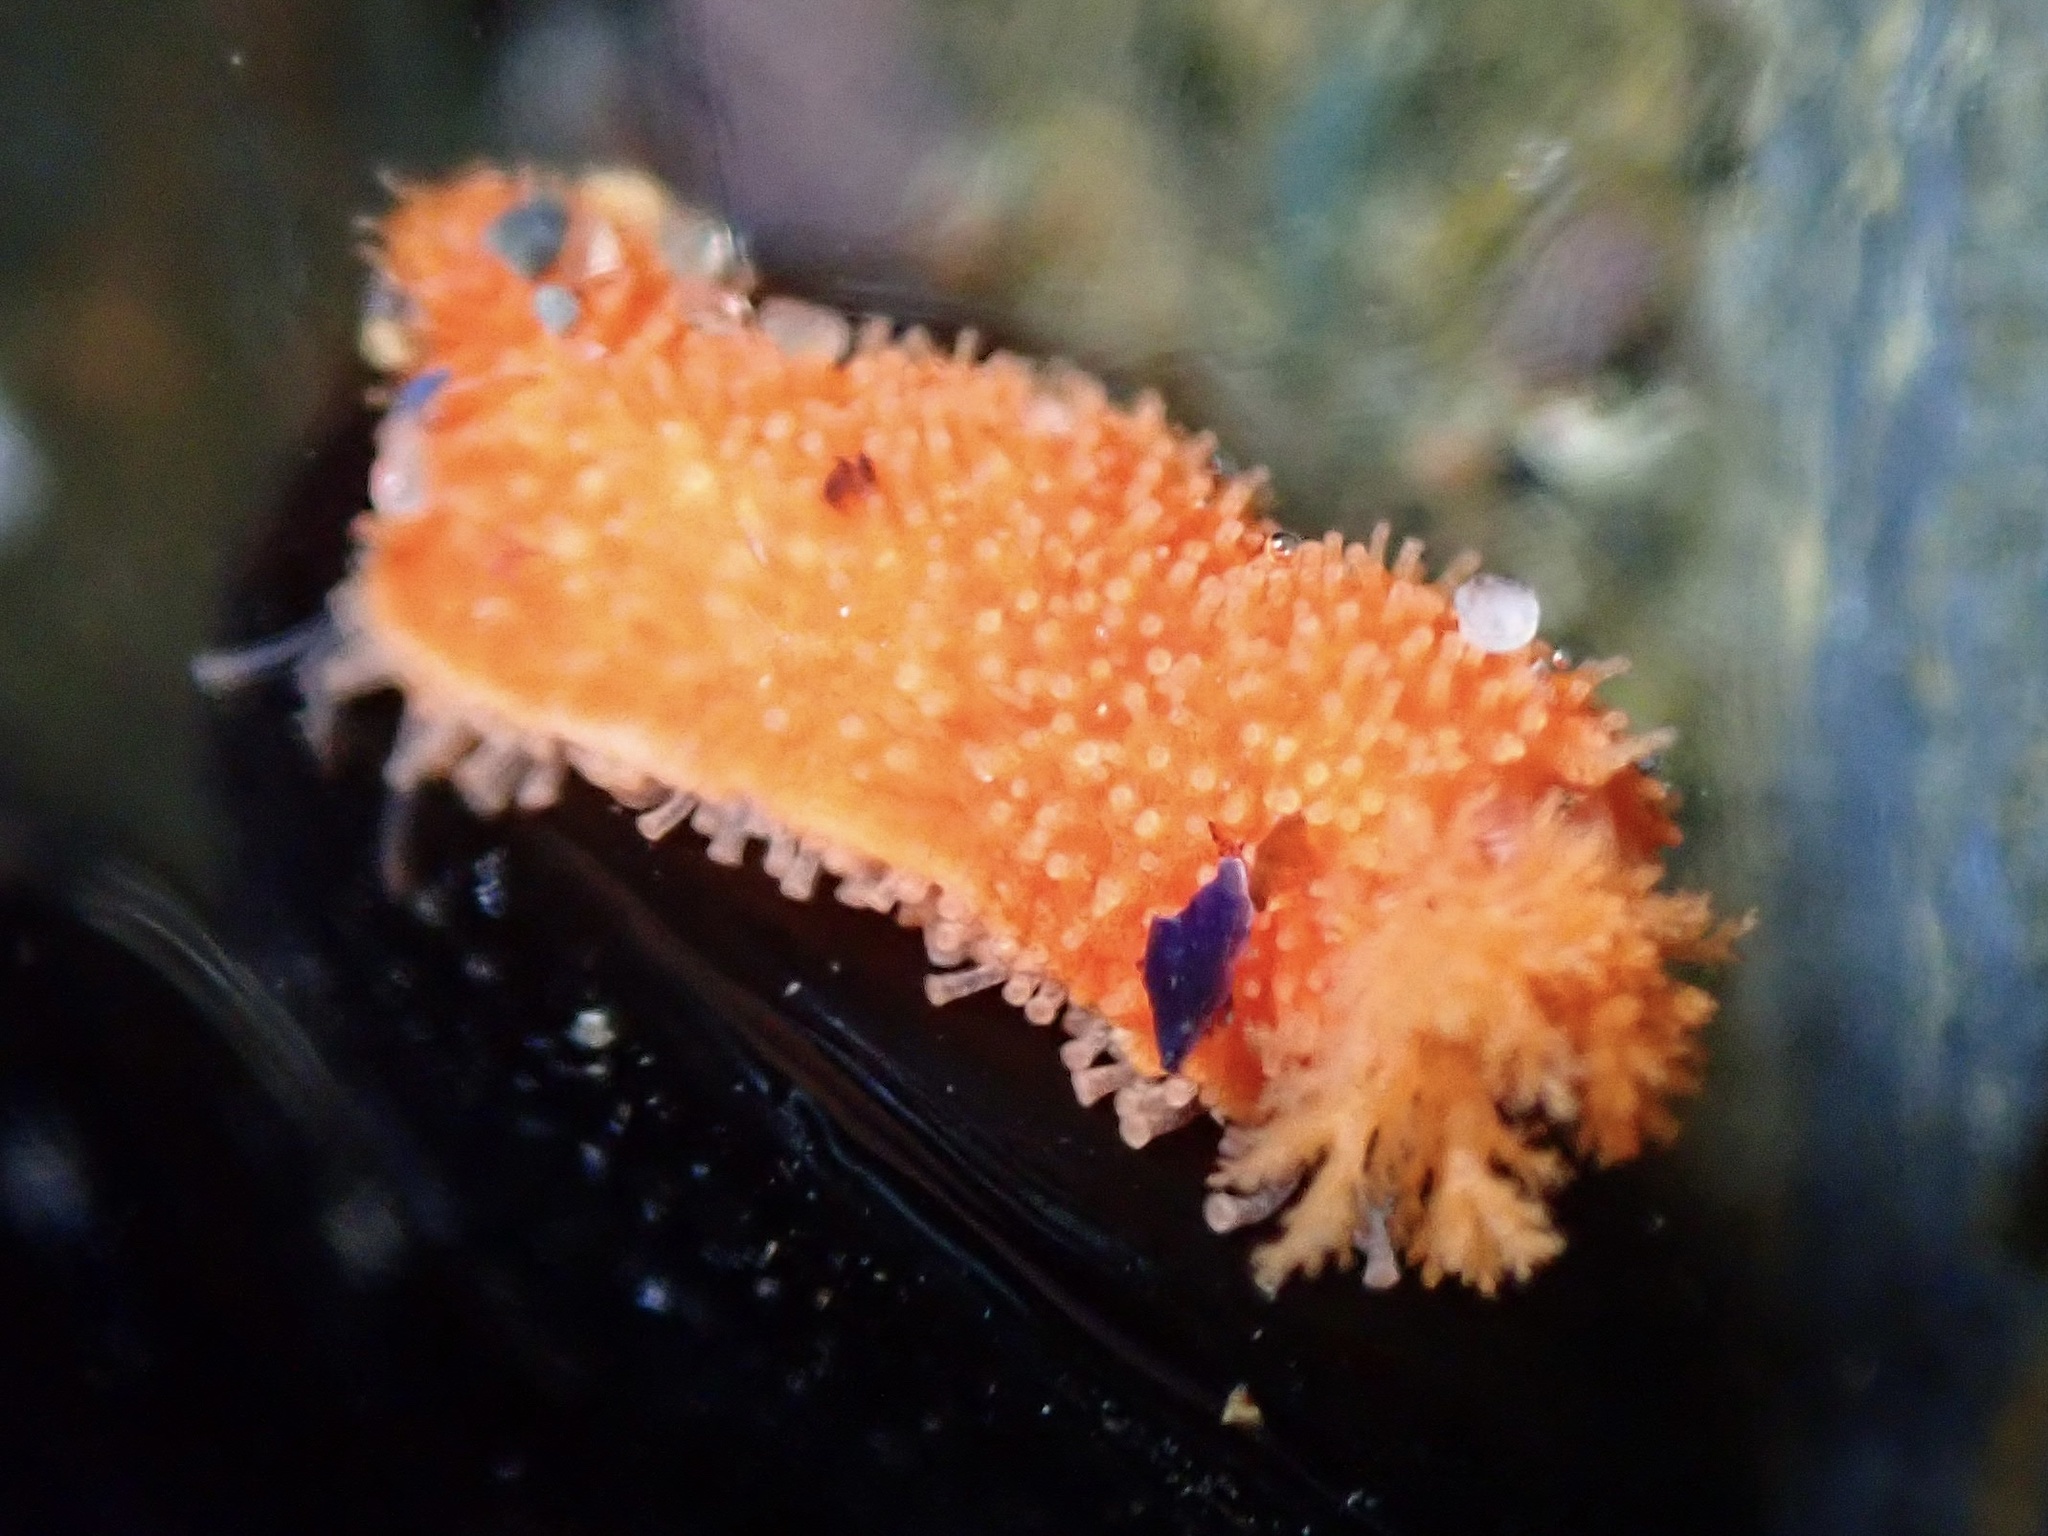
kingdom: Animalia
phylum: Echinodermata
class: Holothuroidea
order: Dendrochirotida
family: Psolidae
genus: Lissothuria
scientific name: Lissothuria nutriens
